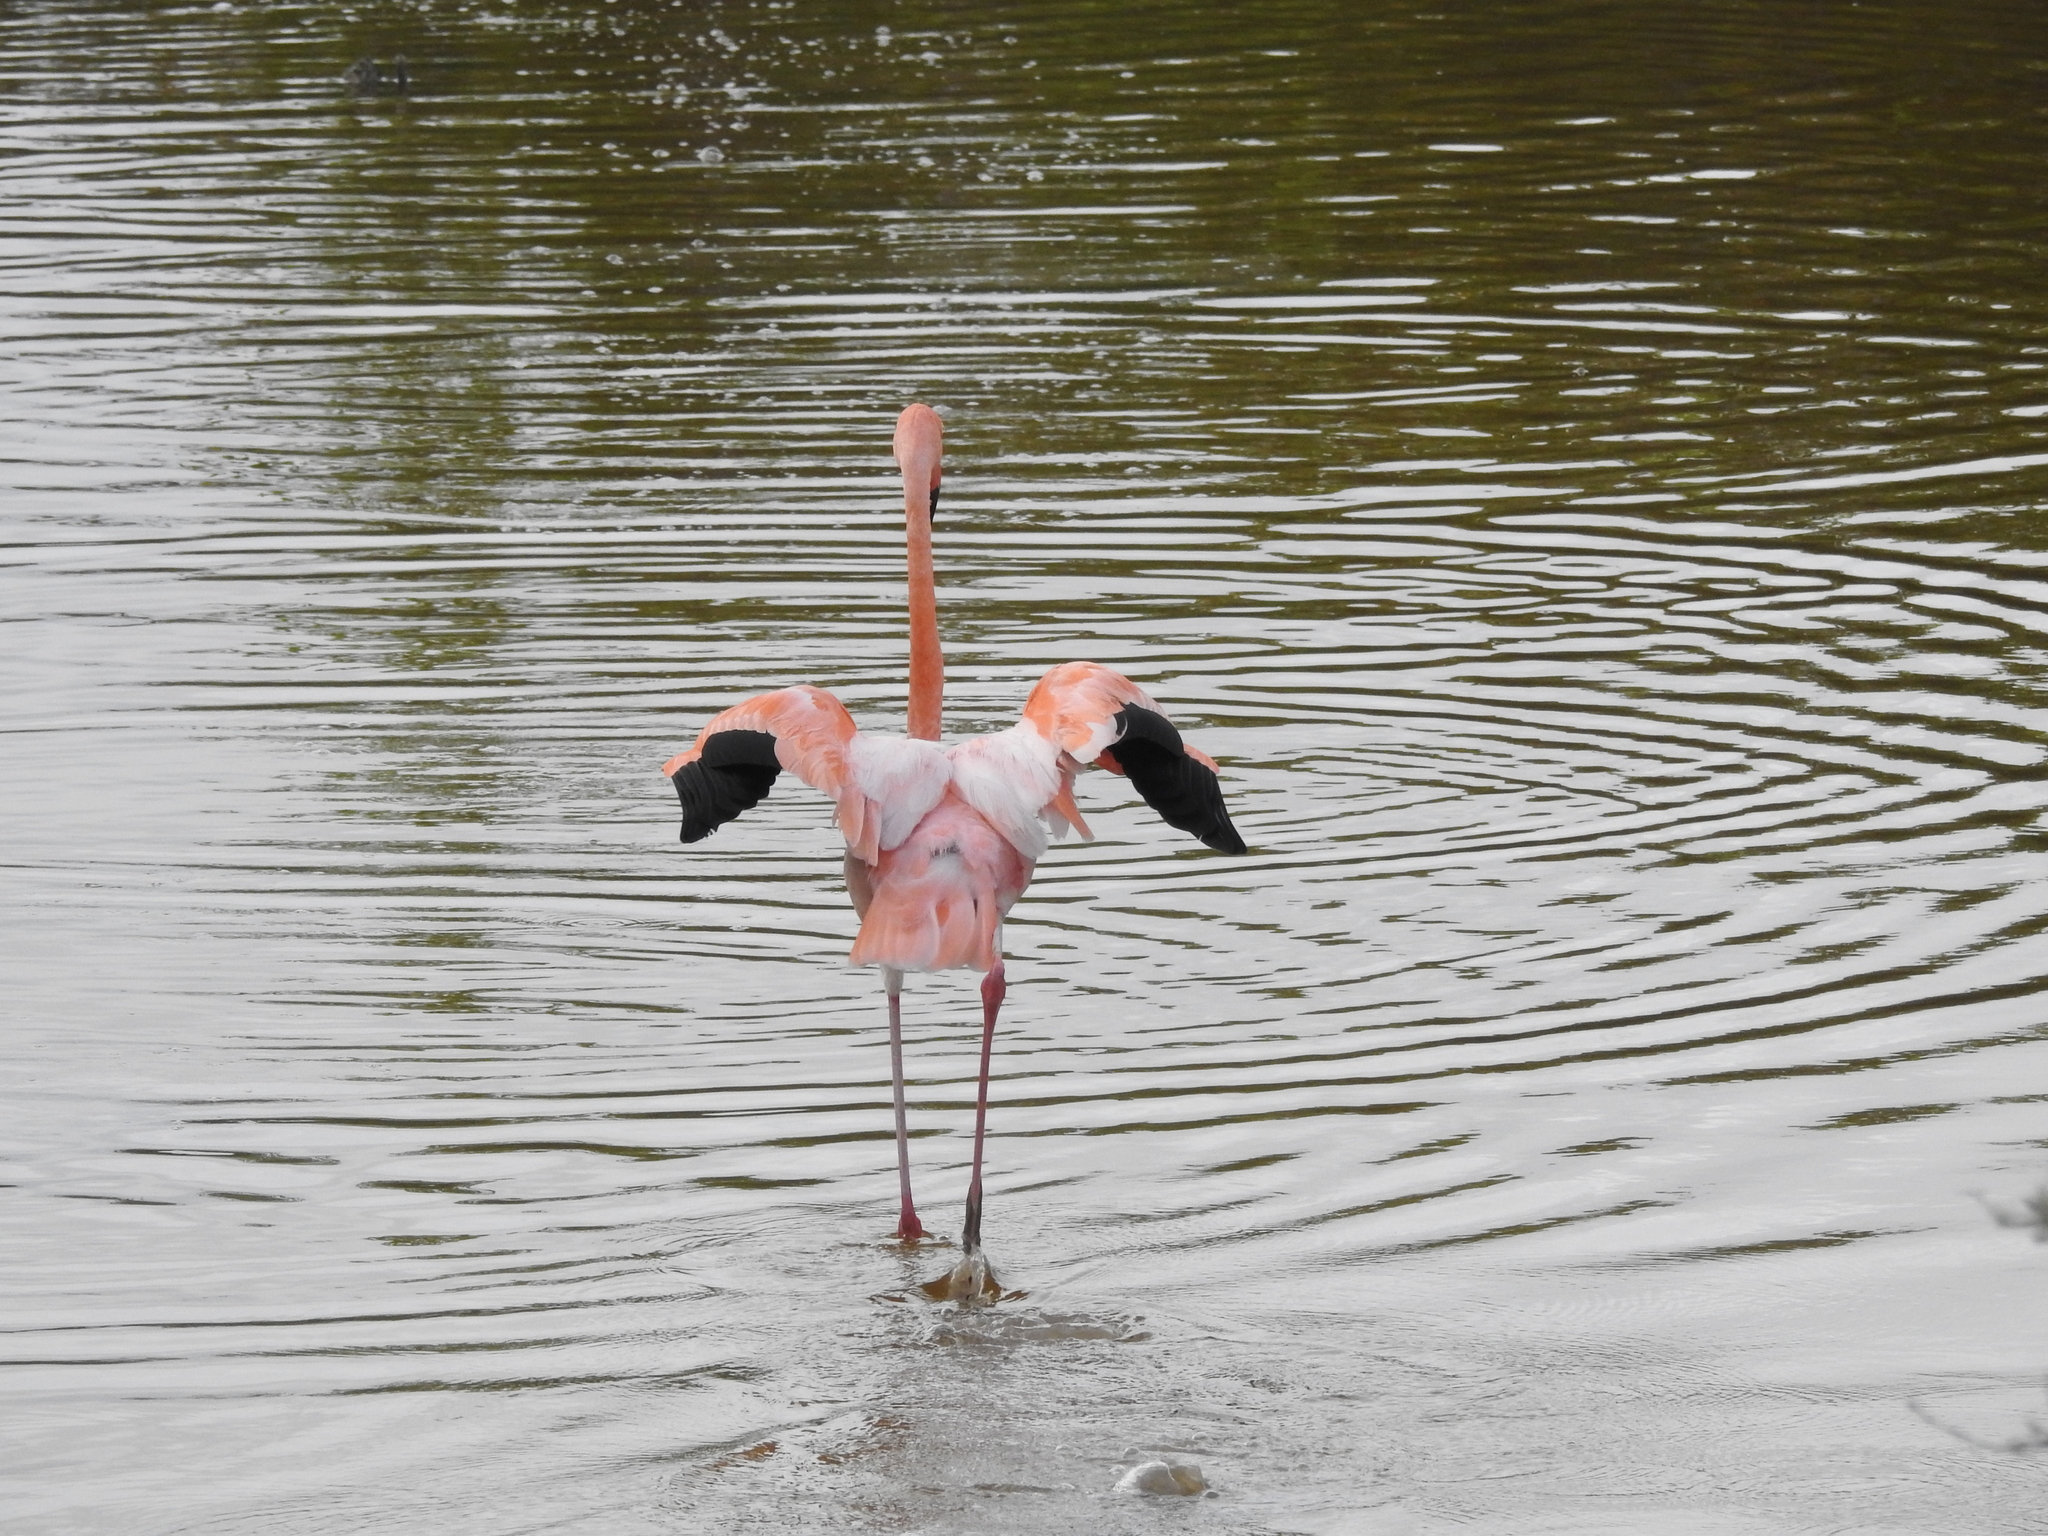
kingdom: Animalia
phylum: Chordata
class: Aves
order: Phoenicopteriformes
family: Phoenicopteridae
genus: Phoenicopterus
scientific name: Phoenicopterus ruber
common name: American flamingo
